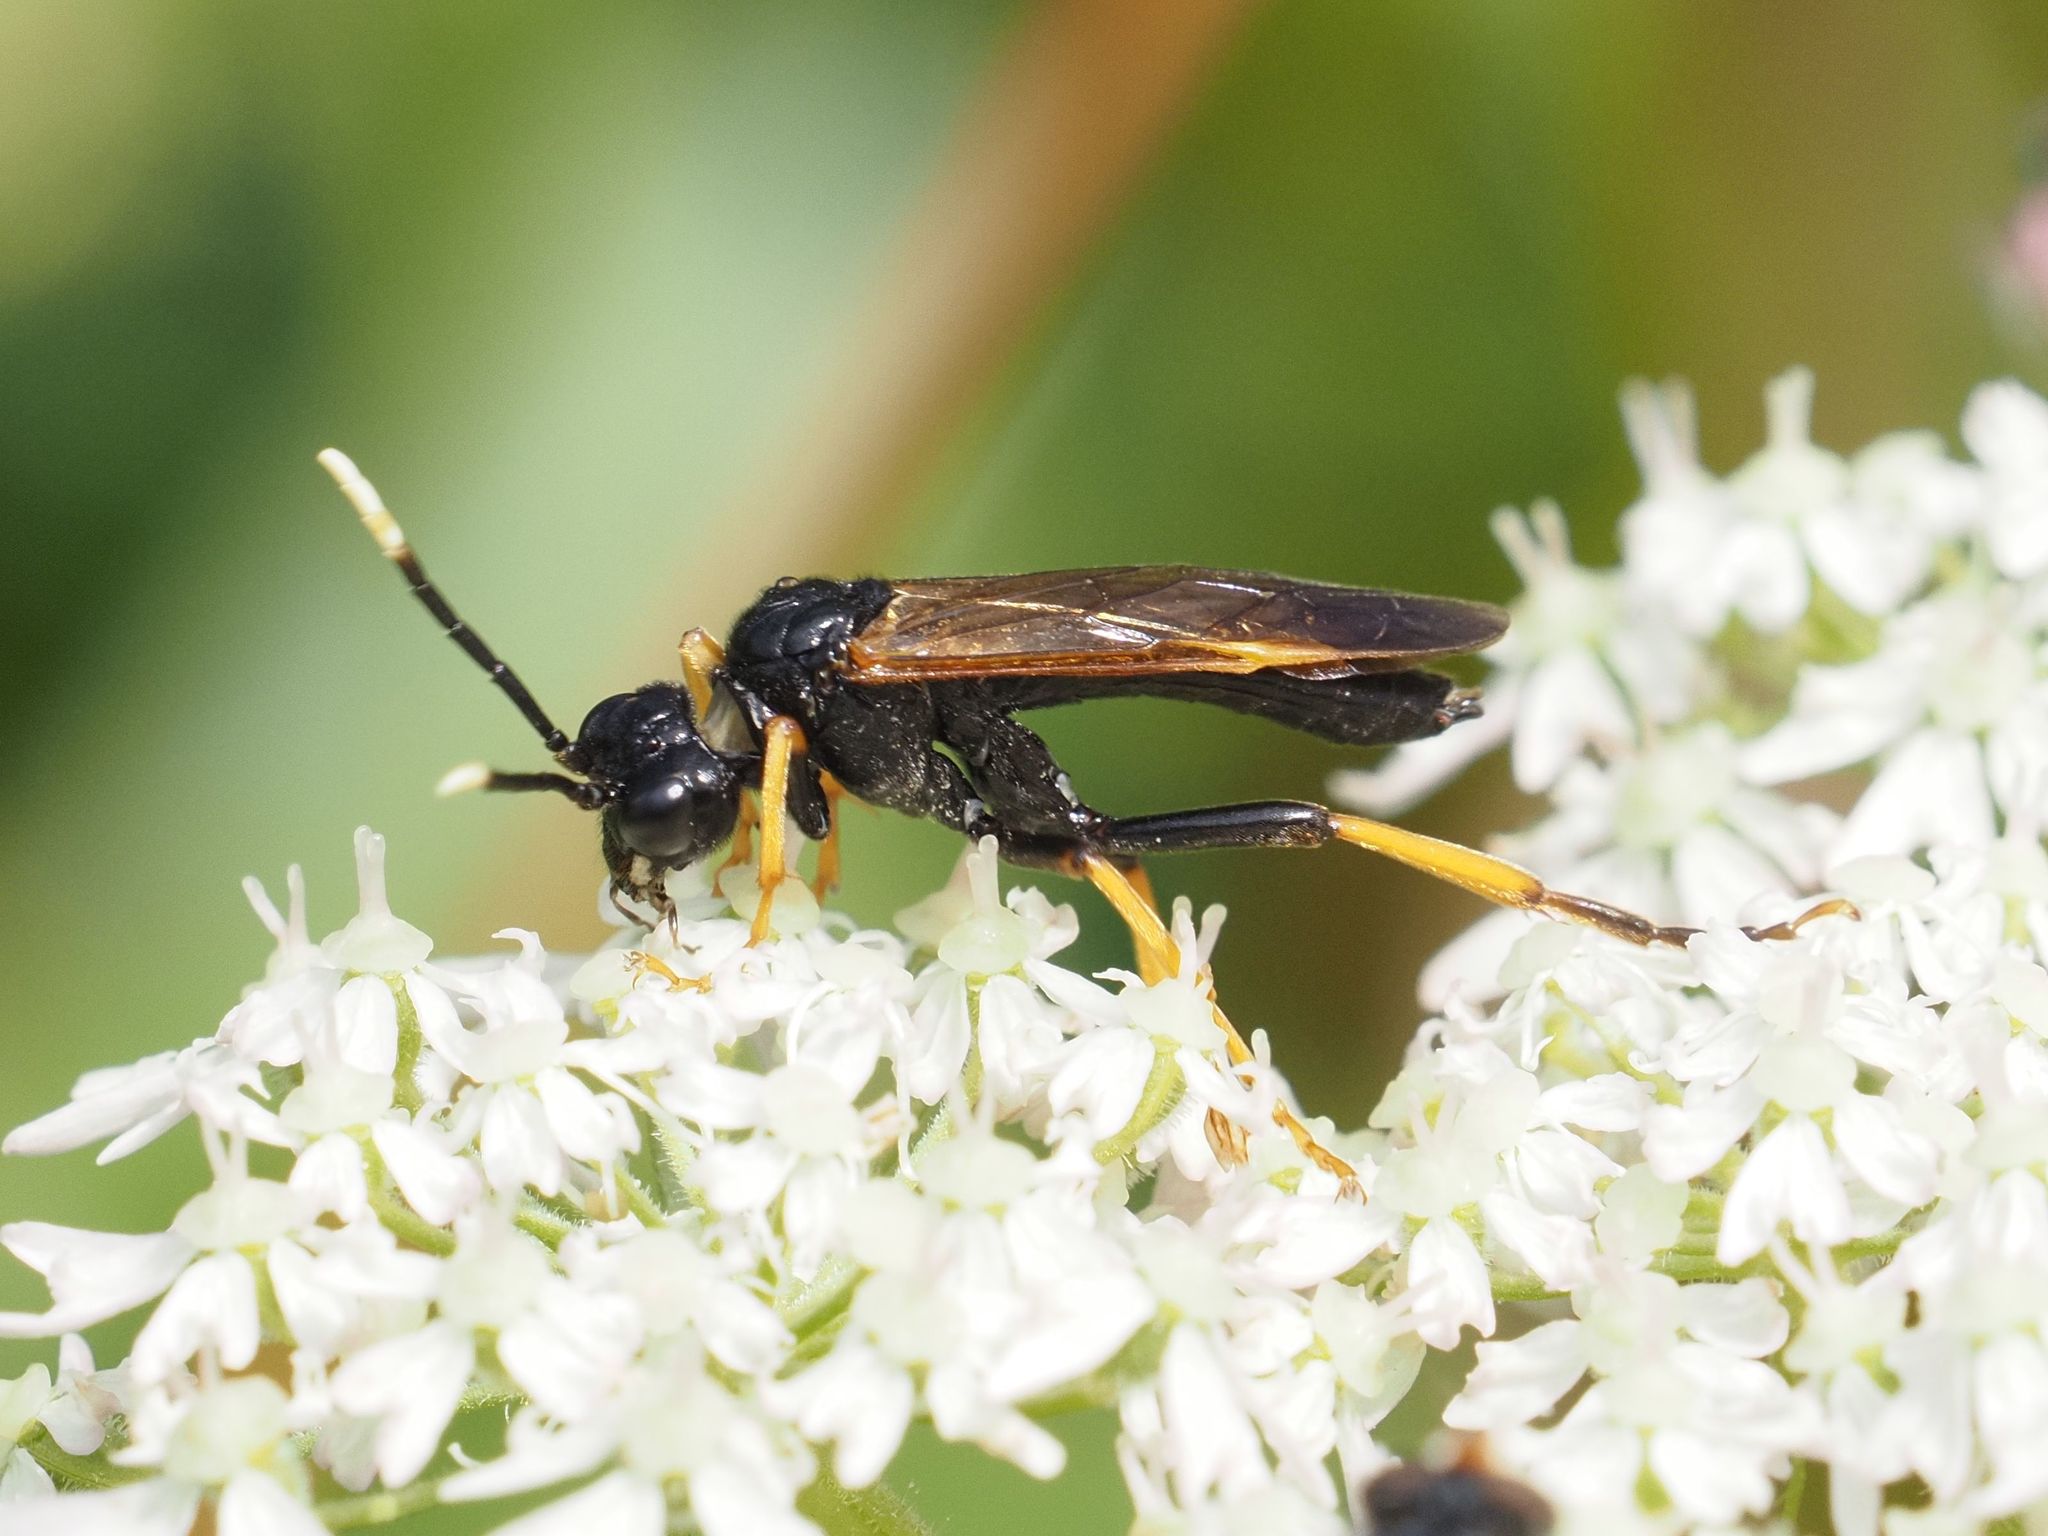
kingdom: Animalia
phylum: Arthropoda
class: Insecta
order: Hymenoptera
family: Tenthredinidae
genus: Tenthredo
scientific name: Tenthredo crassa
